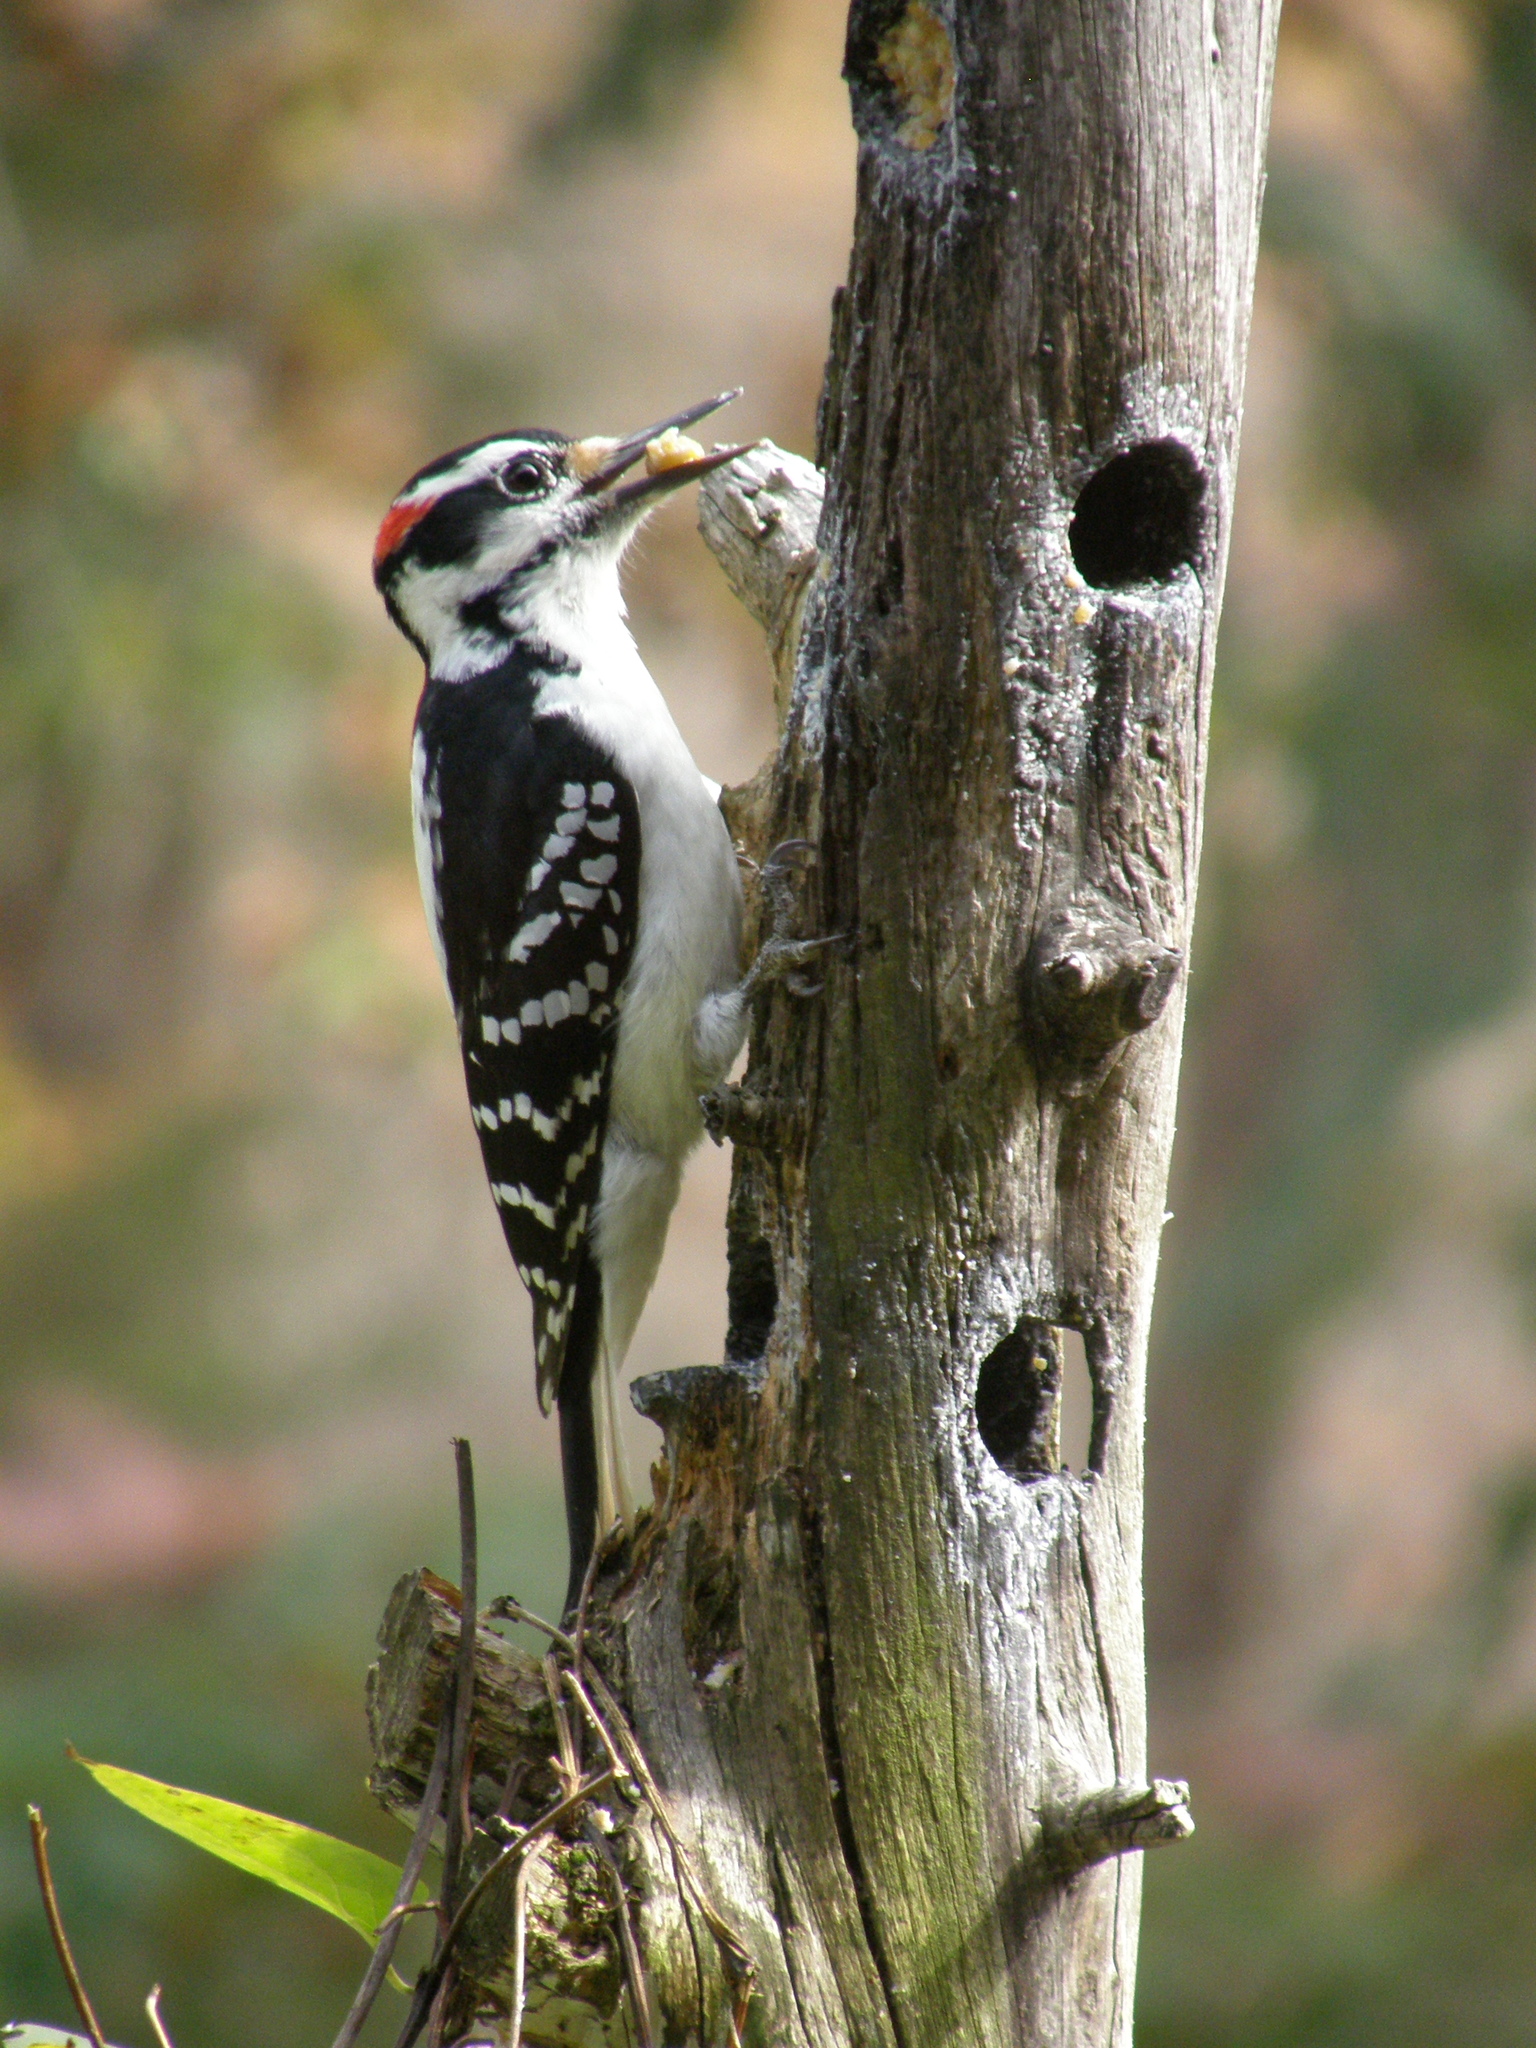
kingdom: Animalia
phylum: Chordata
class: Aves
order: Piciformes
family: Picidae
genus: Leuconotopicus
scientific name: Leuconotopicus villosus
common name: Hairy woodpecker
